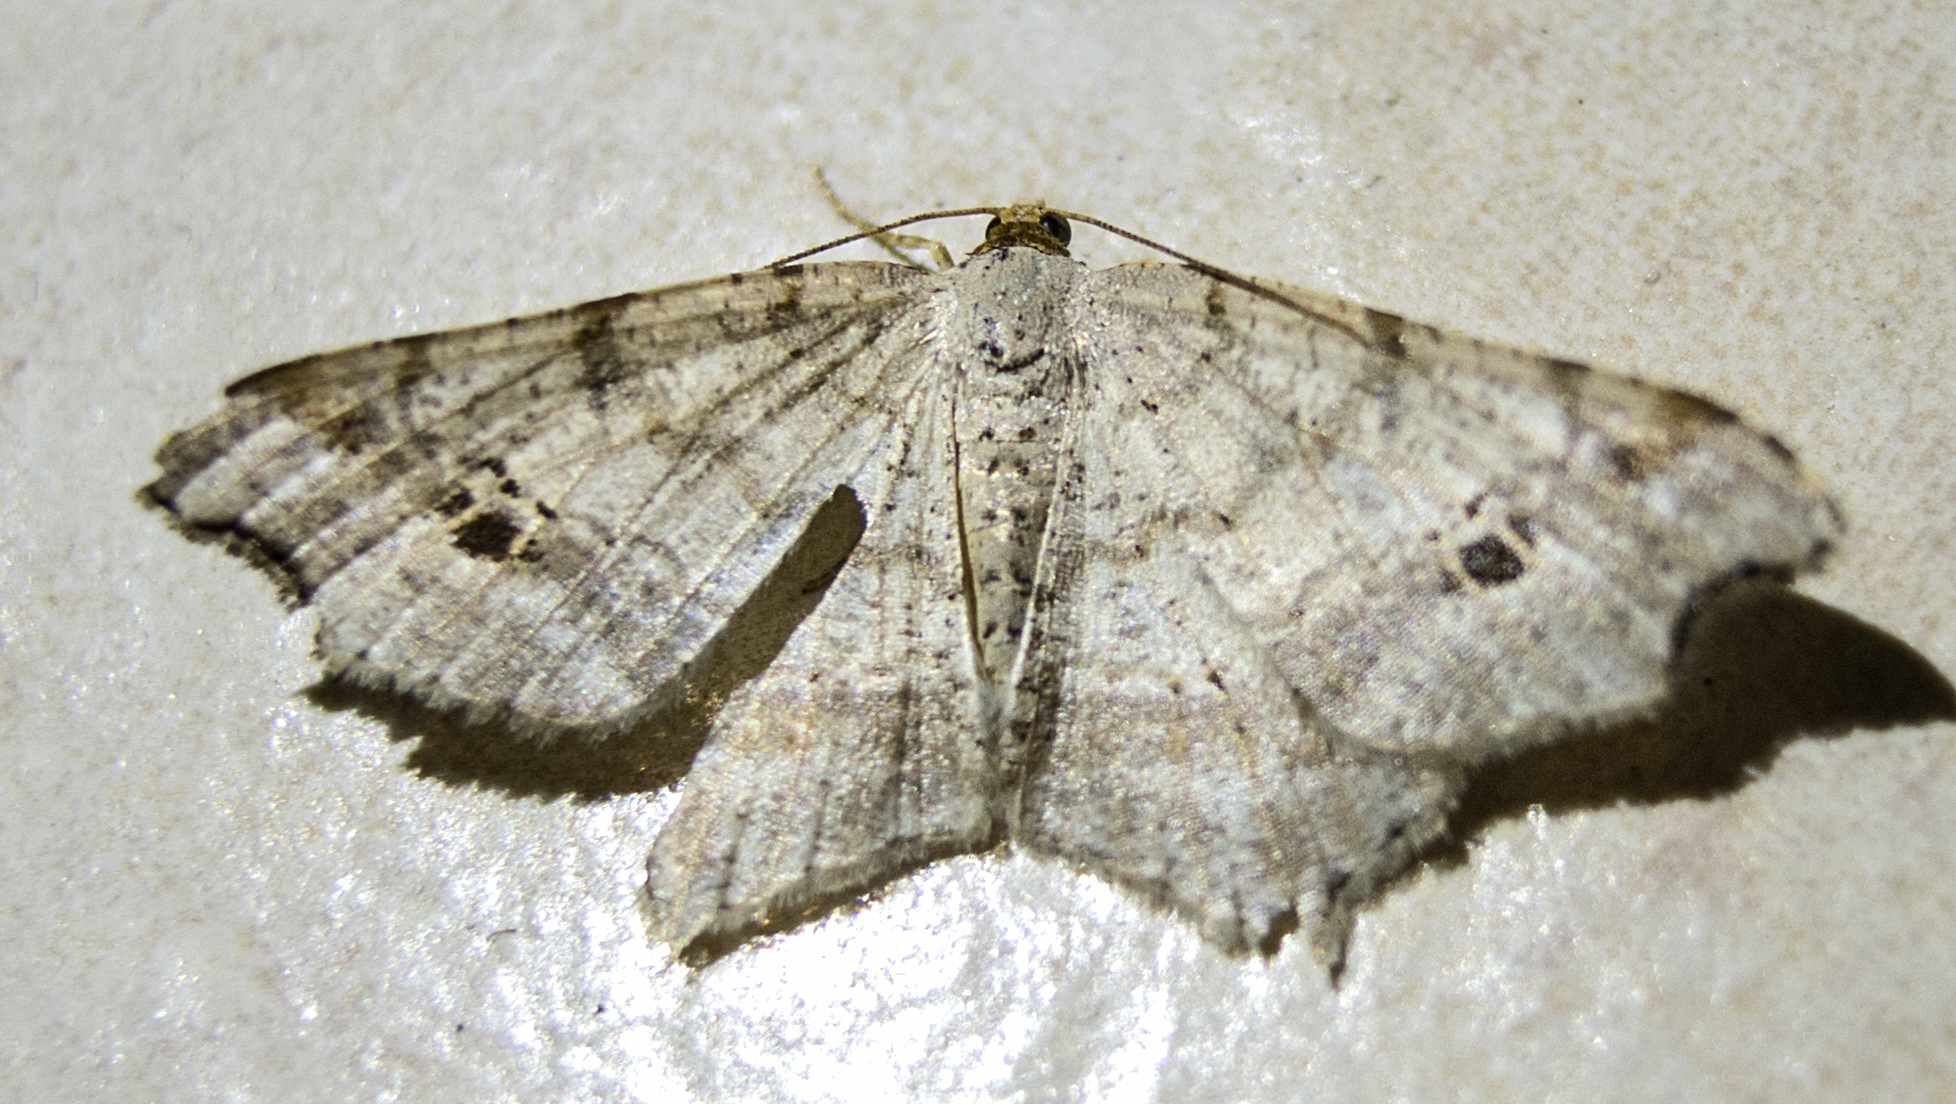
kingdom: Animalia
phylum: Arthropoda
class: Insecta
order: Lepidoptera
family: Geometridae
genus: Macaria
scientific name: Macaria notata
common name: Peacock moth
